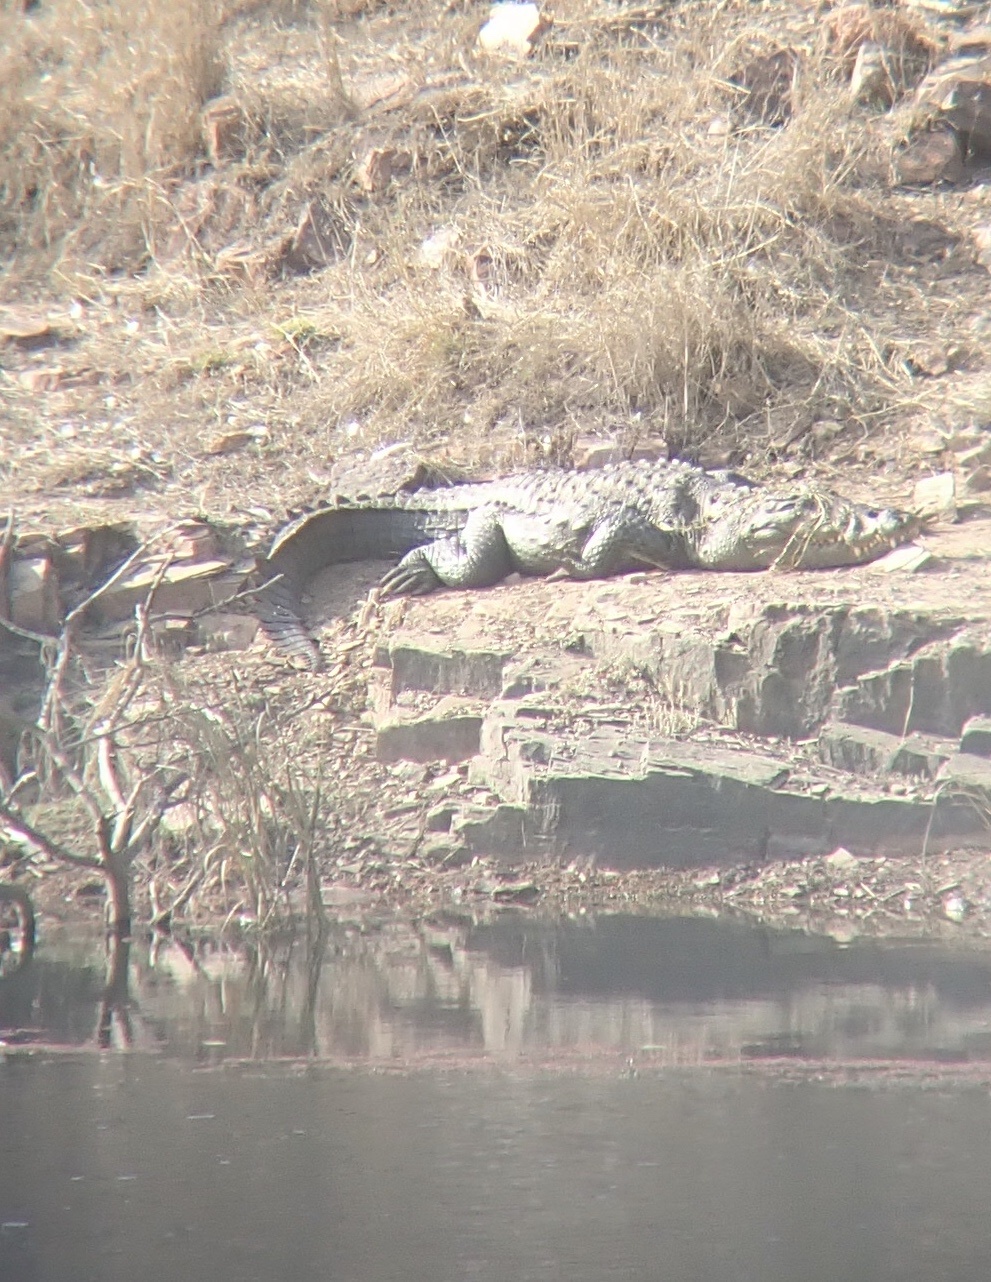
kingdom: Animalia
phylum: Chordata
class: Crocodylia
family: Crocodylidae
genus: Crocodylus
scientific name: Crocodylus palustris
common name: Mugger crocodile
